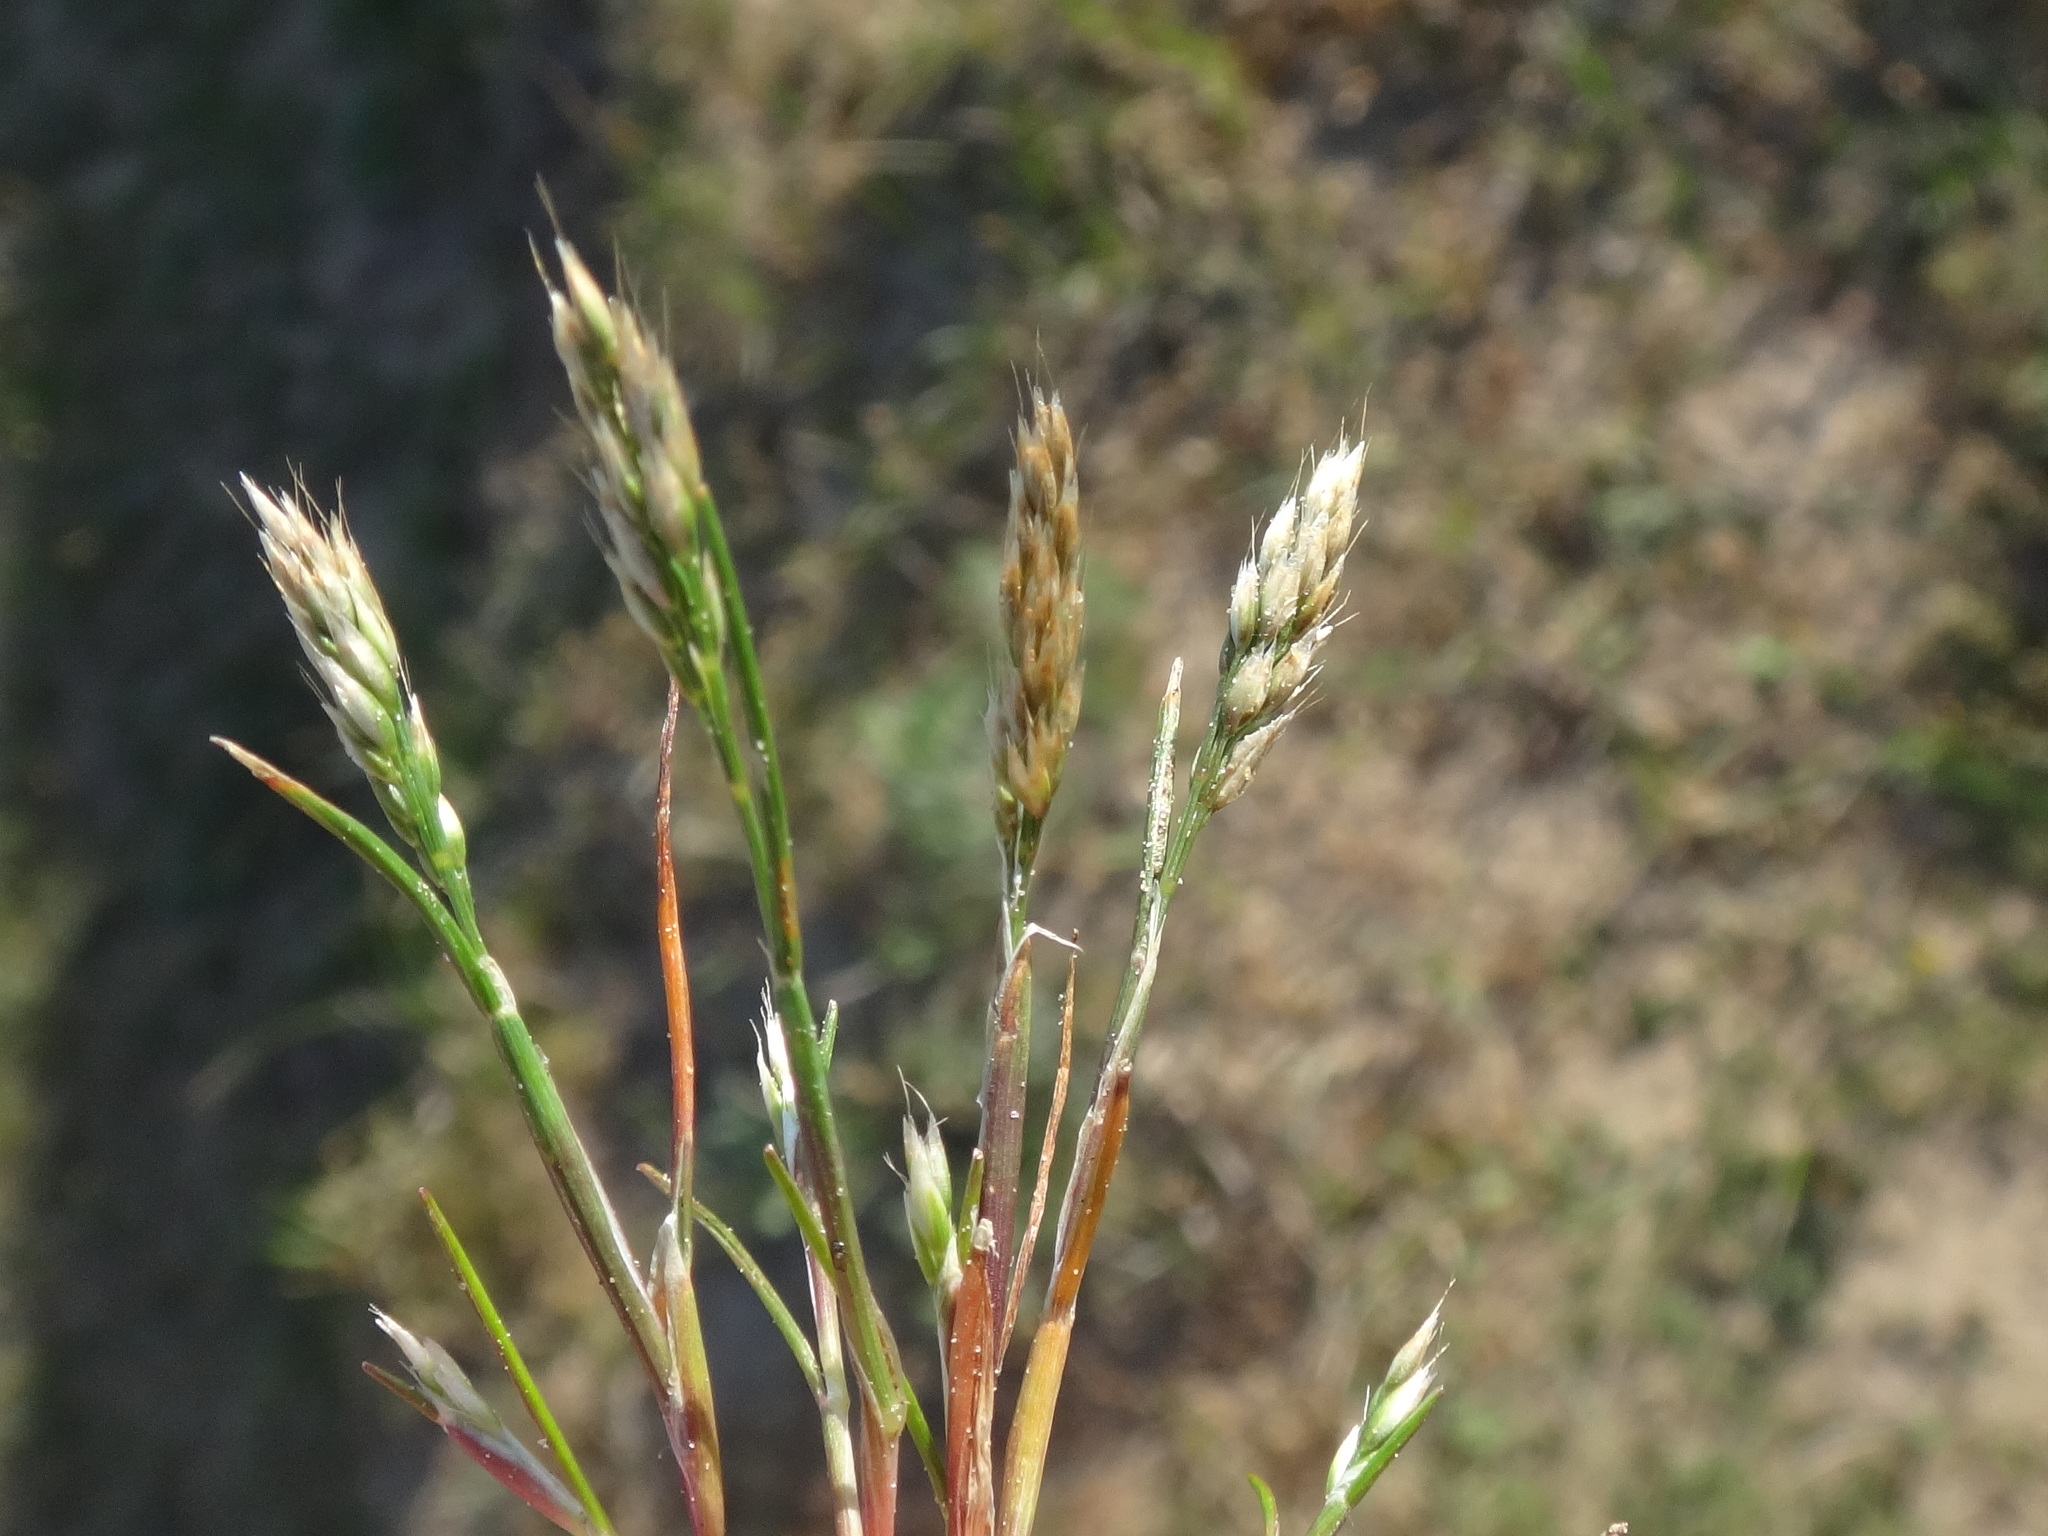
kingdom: Plantae
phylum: Tracheophyta
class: Liliopsida
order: Poales
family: Poaceae
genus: Aira
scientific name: Aira praecox
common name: Early hair-grass
